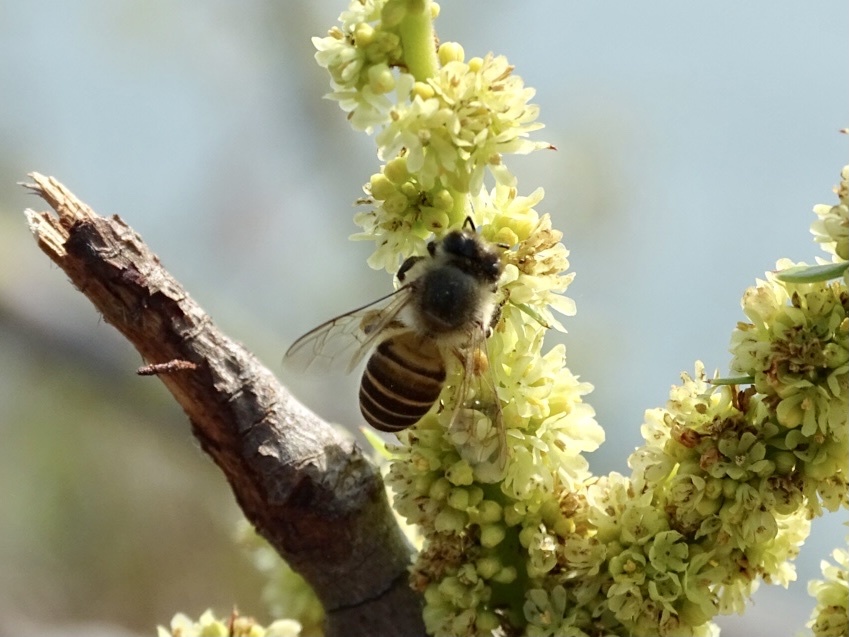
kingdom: Animalia
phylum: Arthropoda
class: Insecta
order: Hymenoptera
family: Apidae
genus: Apis
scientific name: Apis cerana
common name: Honey bee
